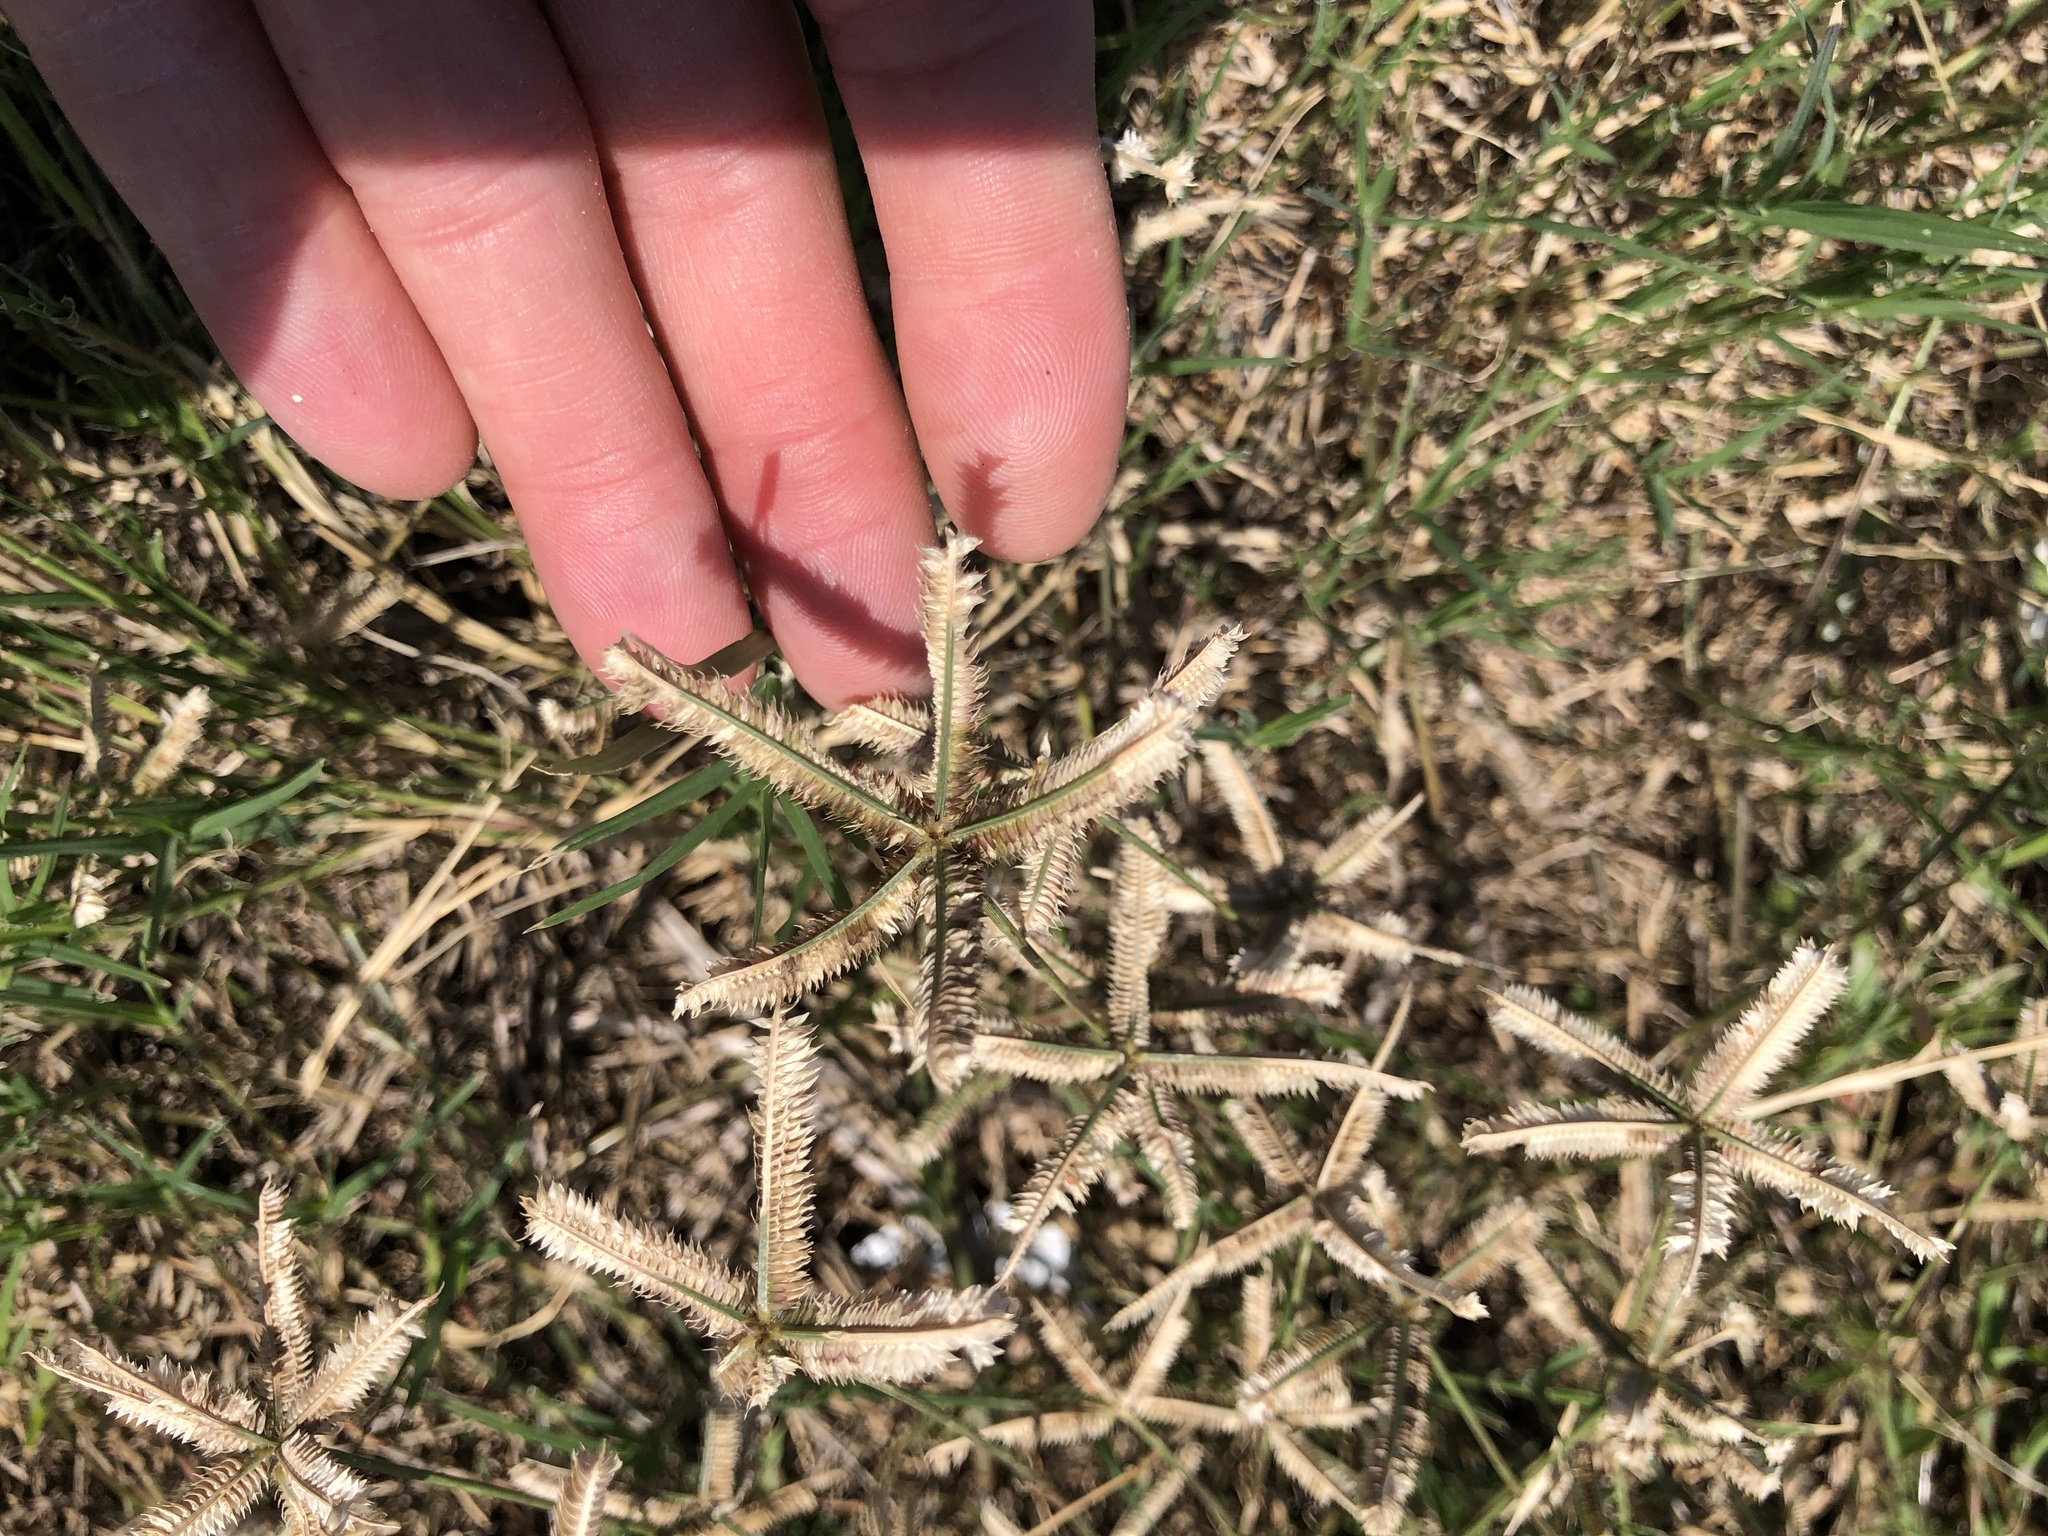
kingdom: Plantae
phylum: Tracheophyta
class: Liliopsida
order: Poales
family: Poaceae
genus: Dactyloctenium
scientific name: Dactyloctenium aegyptium
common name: Egyptian grass
